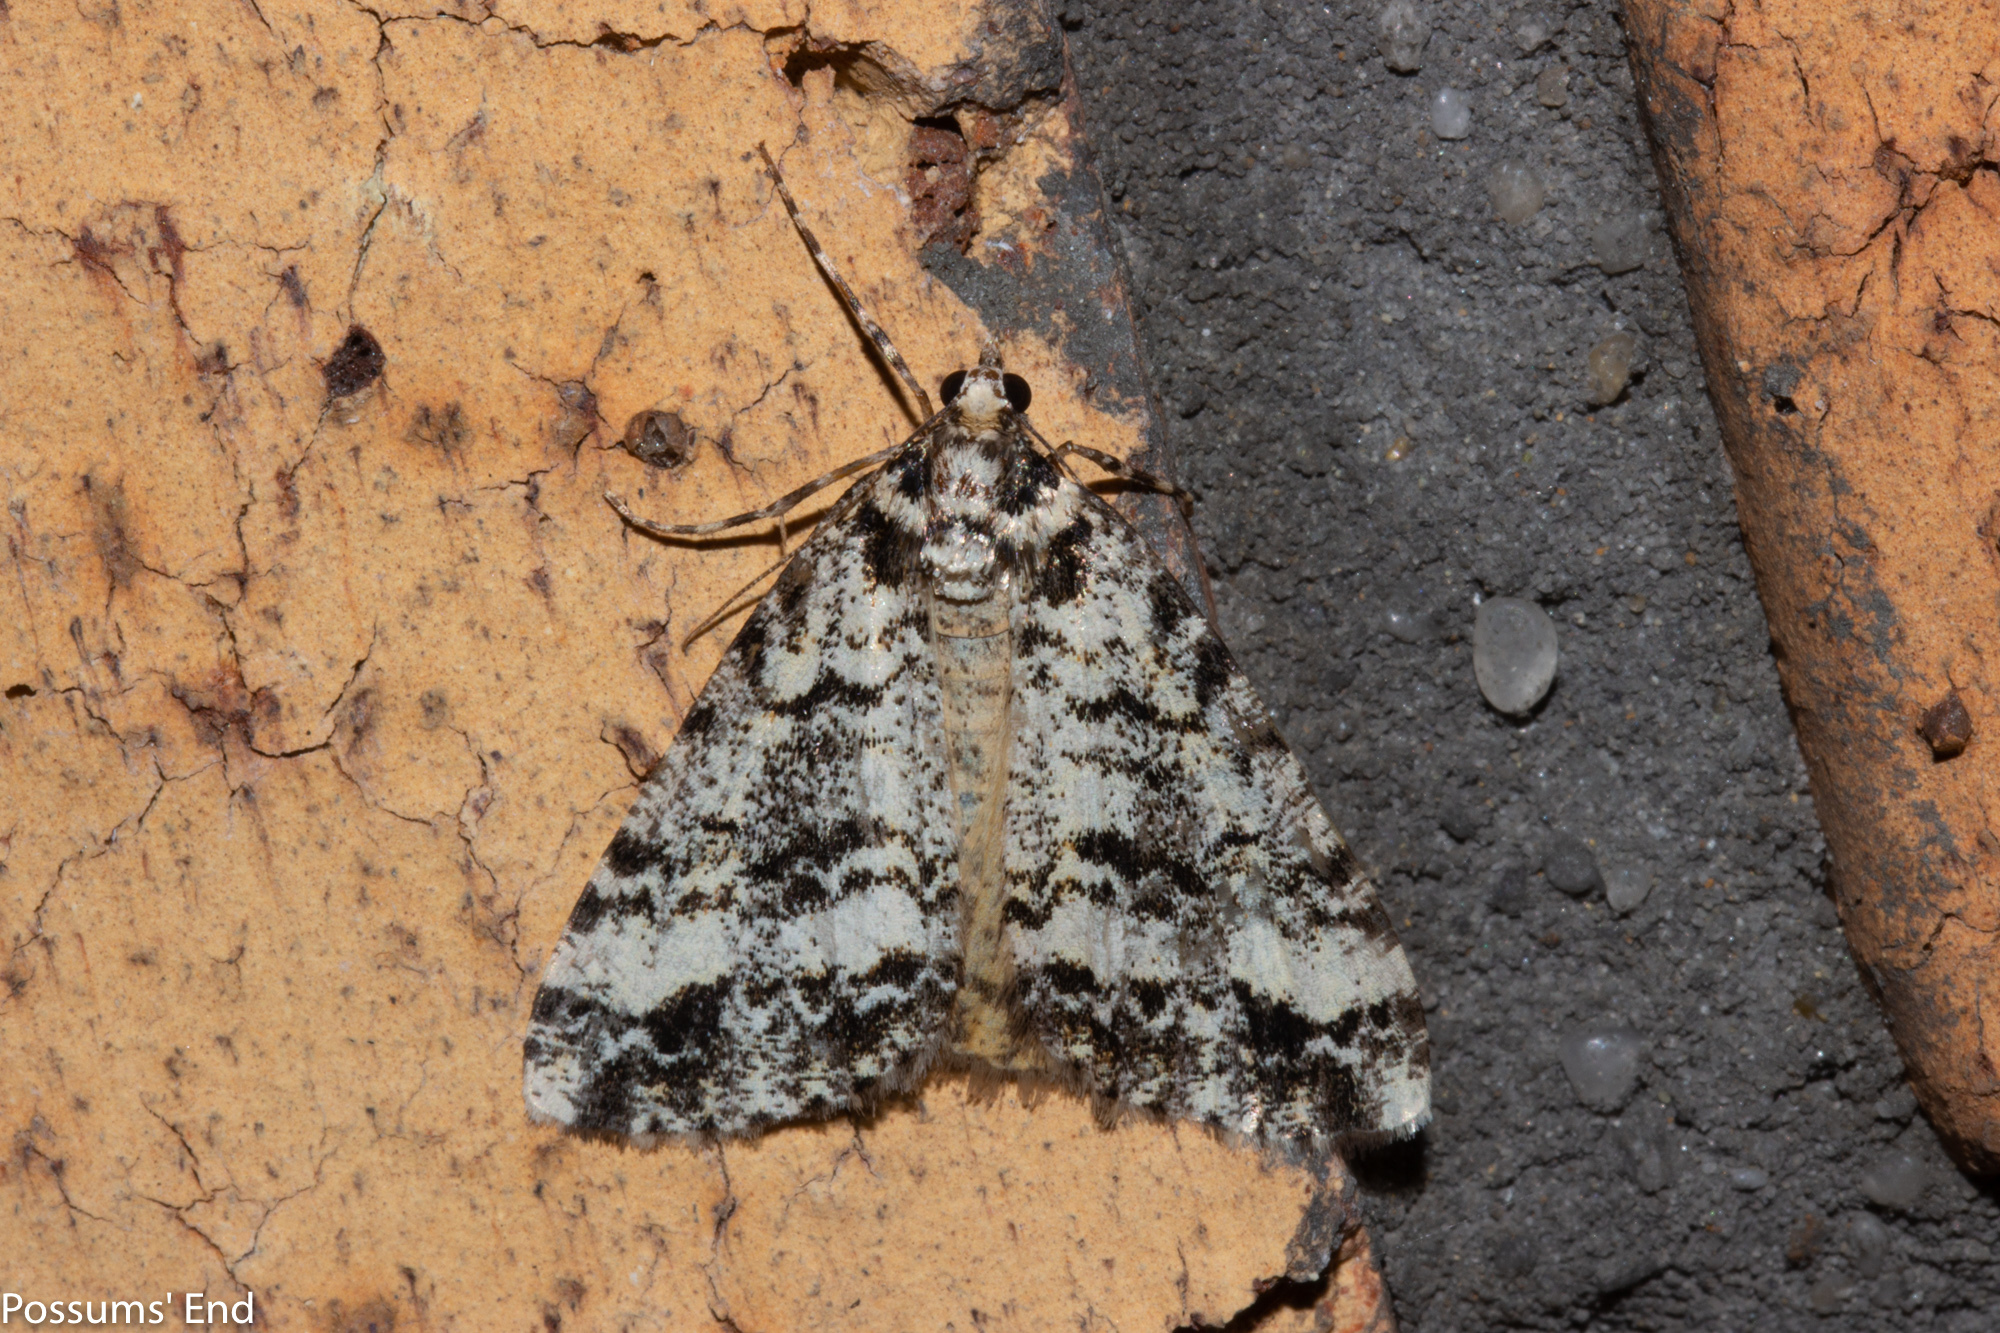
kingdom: Animalia
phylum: Arthropoda
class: Insecta
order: Lepidoptera
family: Geometridae
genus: Pseudocoremia
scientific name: Pseudocoremia leucelaea
